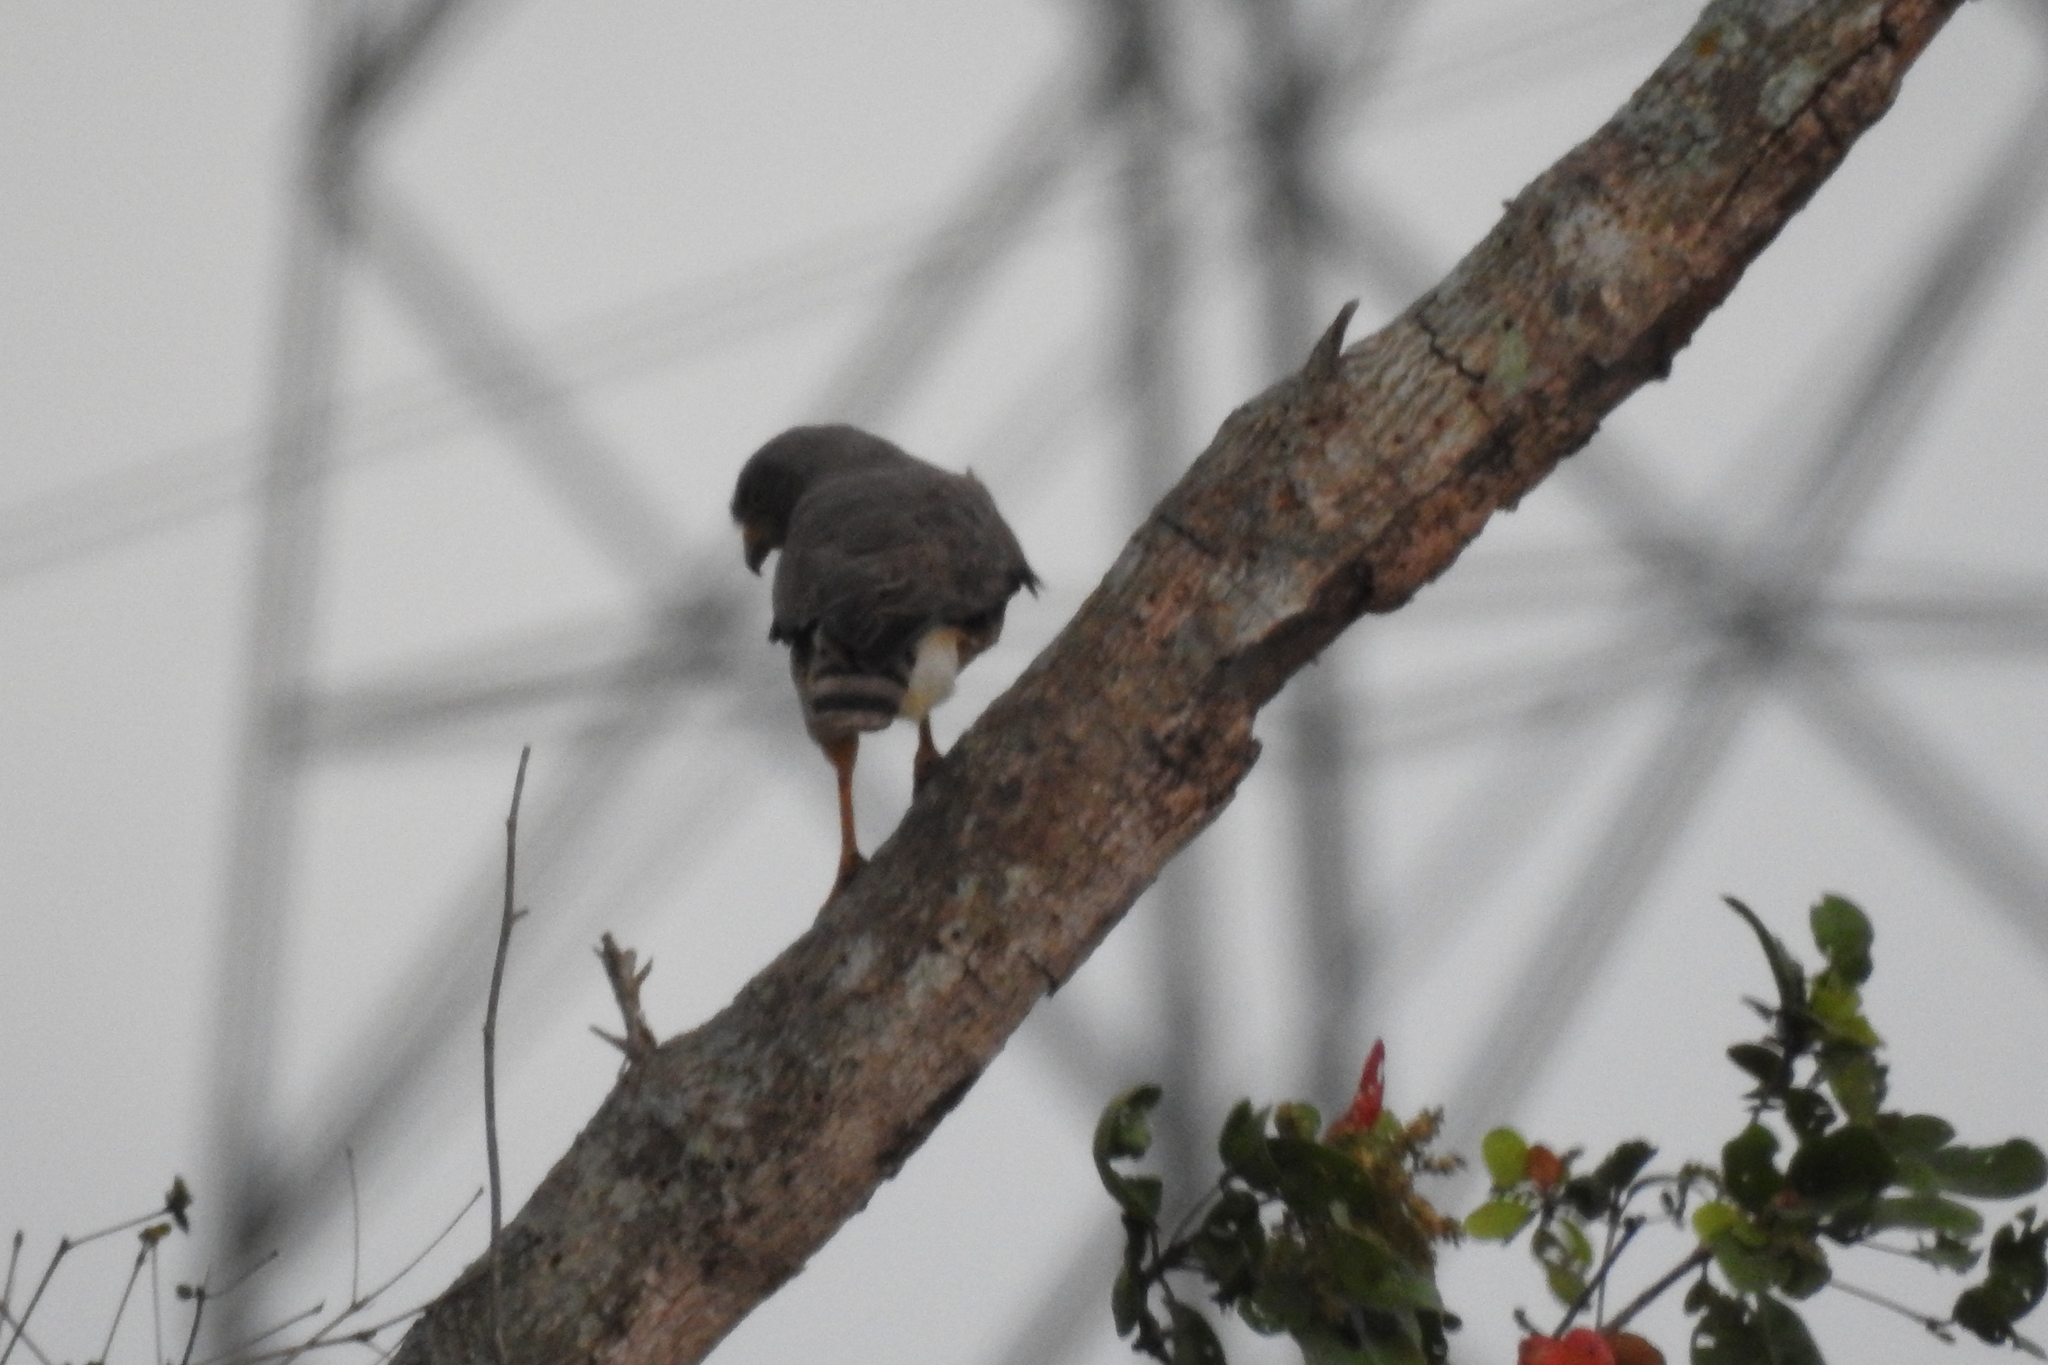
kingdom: Animalia
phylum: Chordata
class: Aves
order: Accipitriformes
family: Accipitridae
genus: Rupornis
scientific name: Rupornis magnirostris
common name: Roadside hawk
